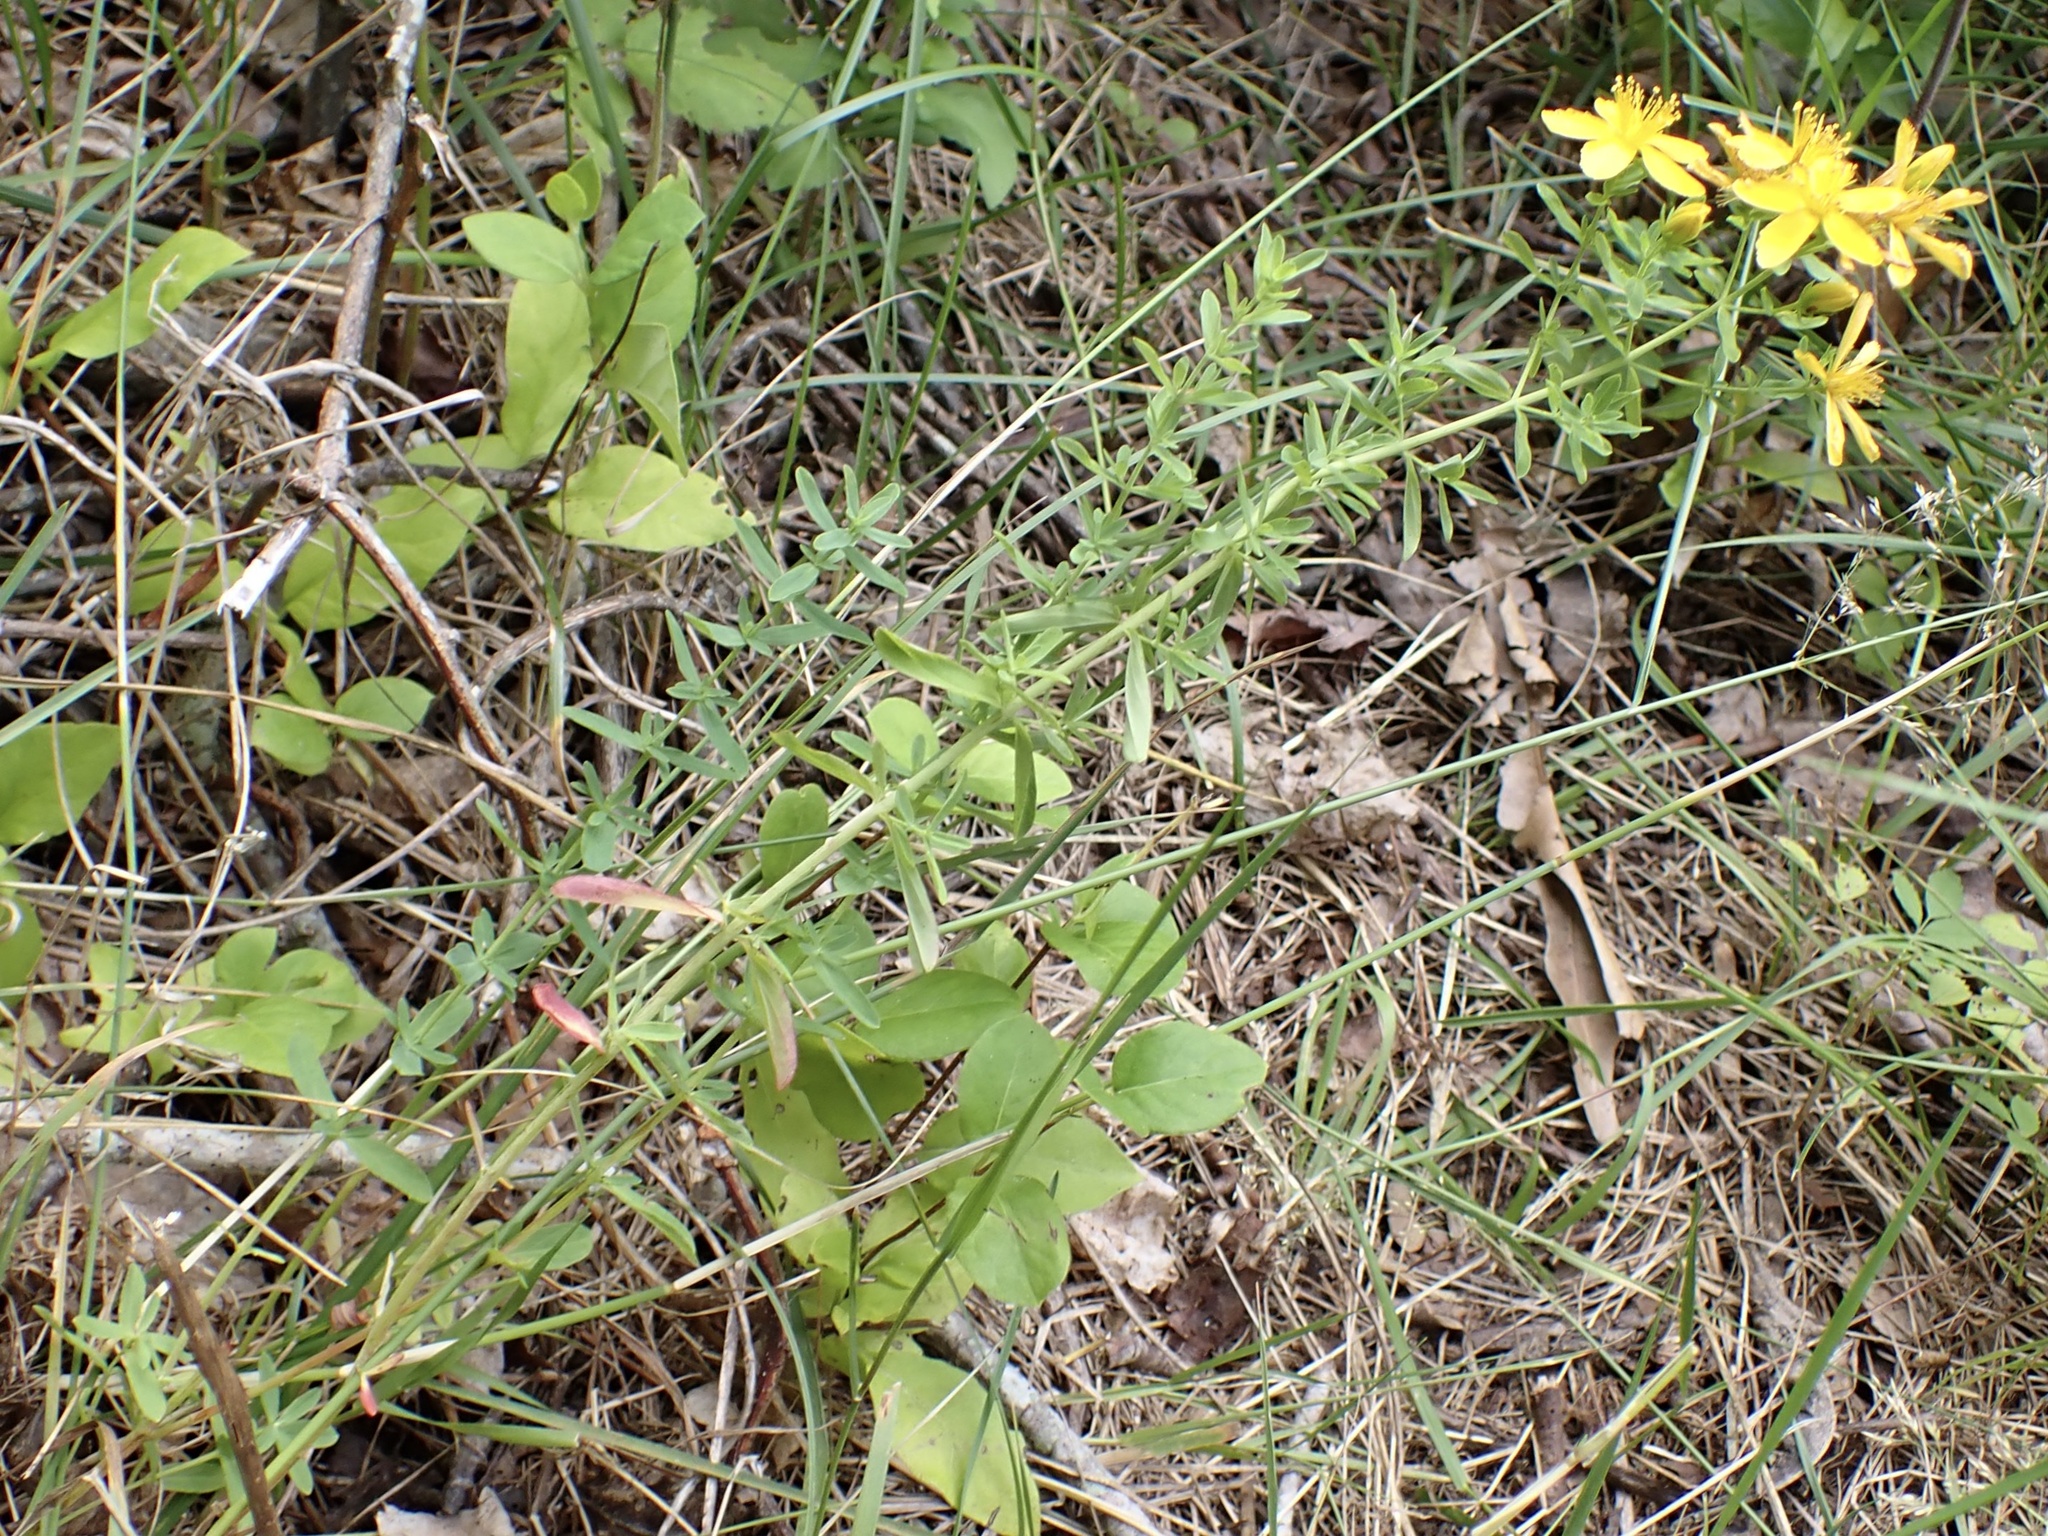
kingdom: Plantae
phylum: Tracheophyta
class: Magnoliopsida
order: Malpighiales
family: Hypericaceae
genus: Hypericum
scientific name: Hypericum perforatum
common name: Common st. johnswort
